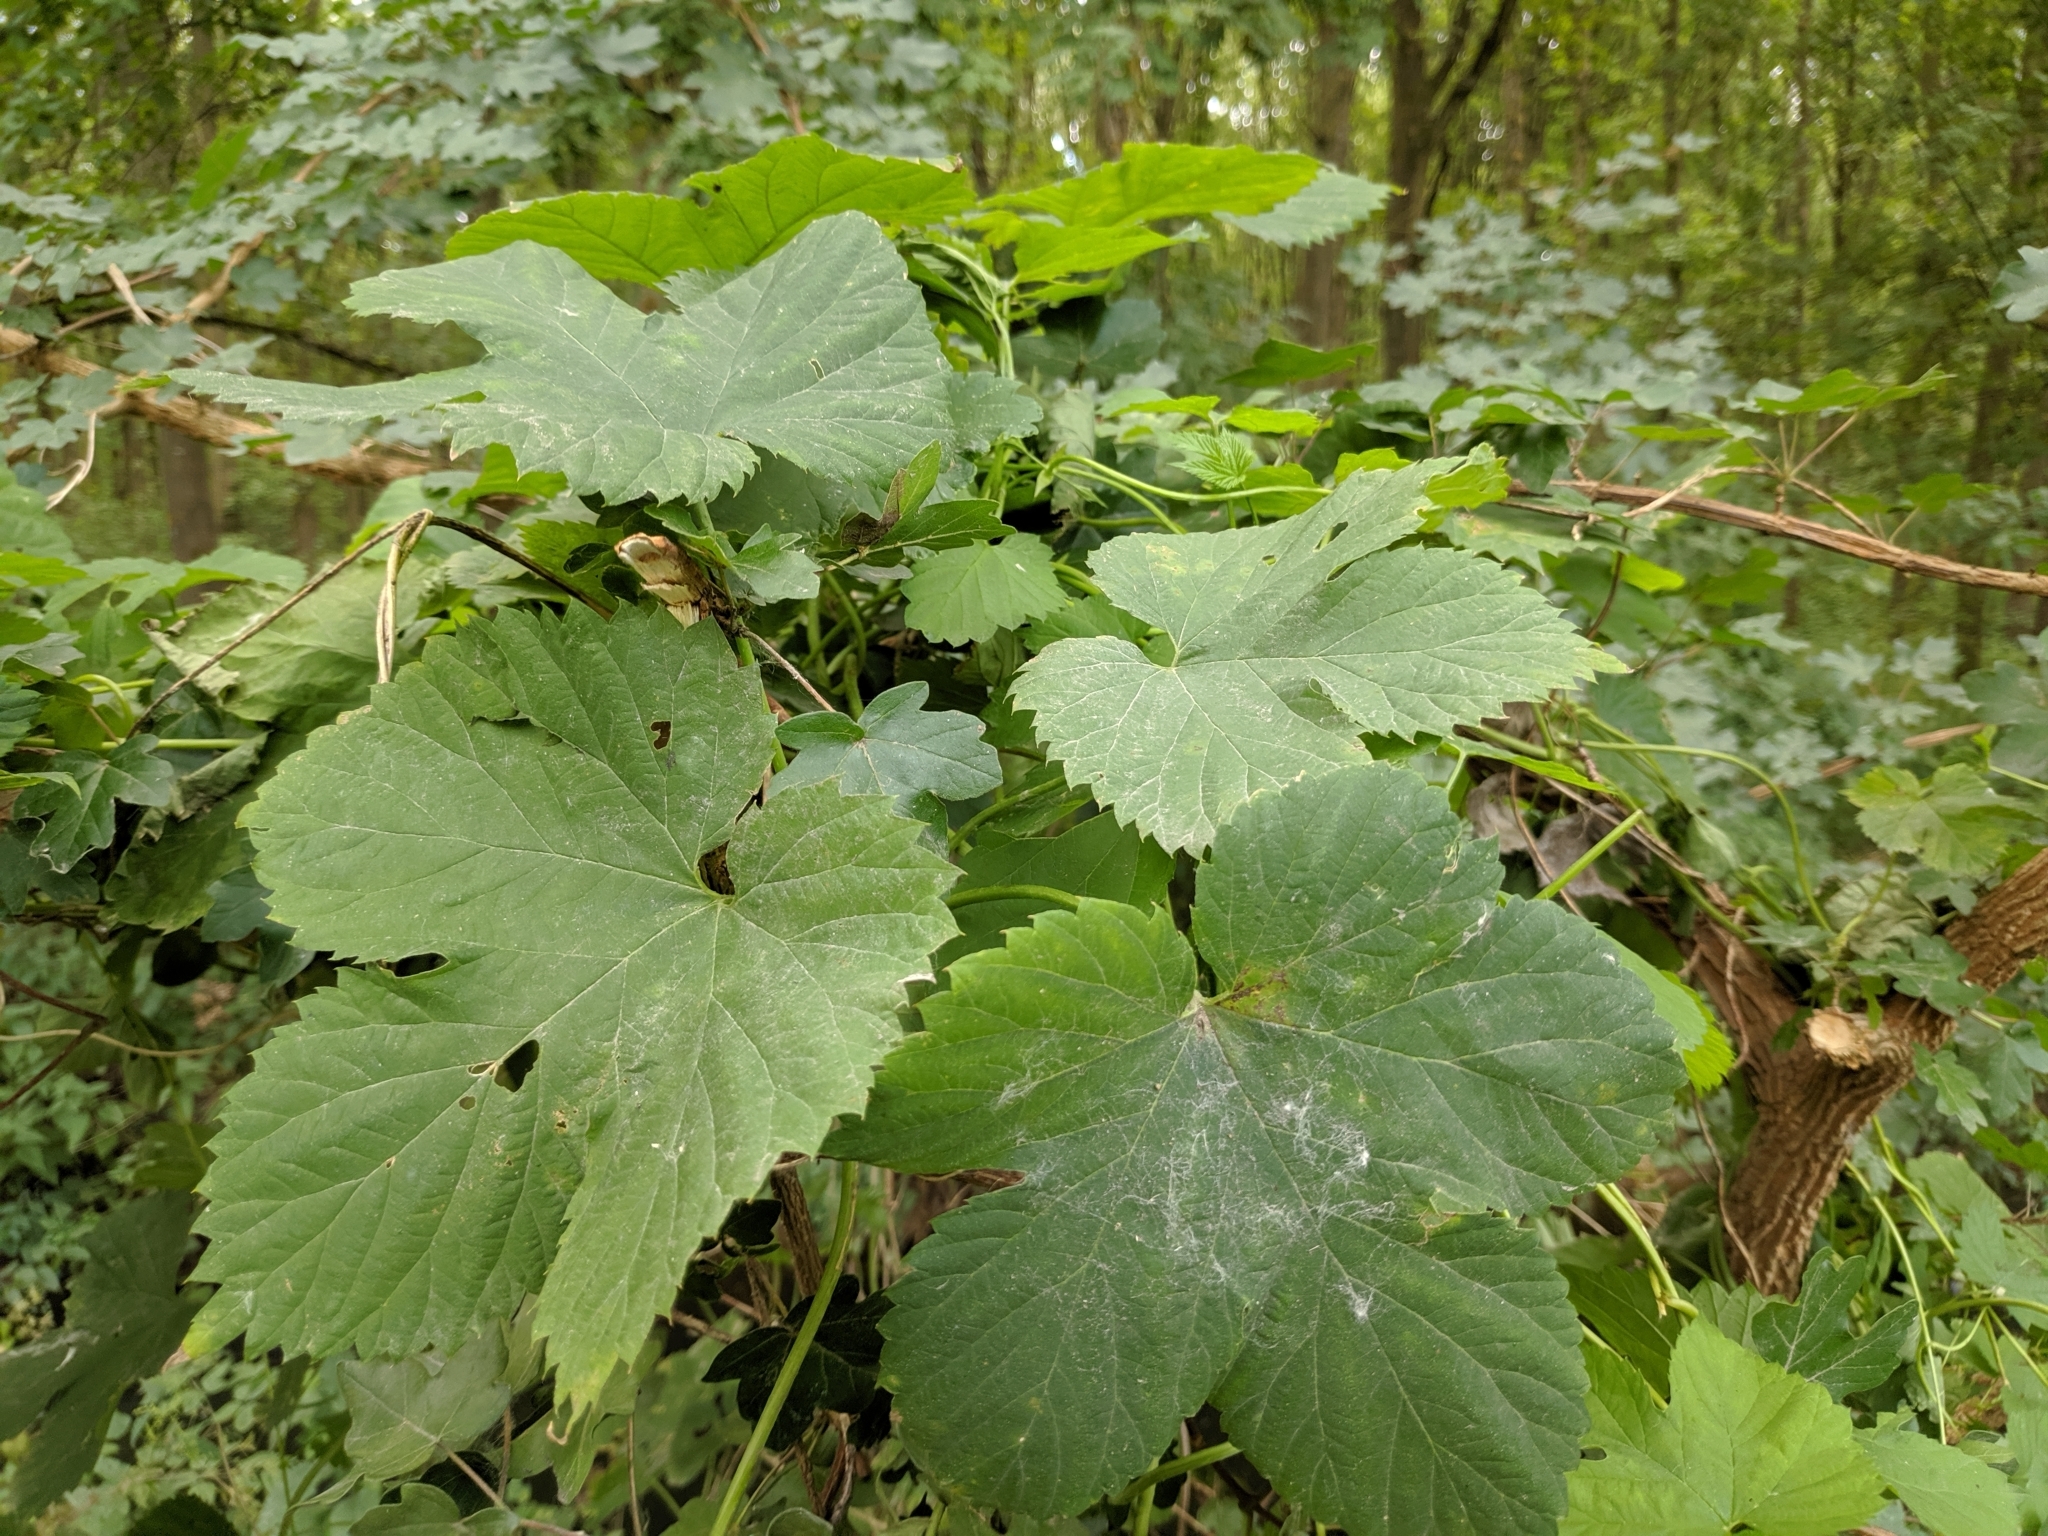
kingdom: Plantae
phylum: Tracheophyta
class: Magnoliopsida
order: Rosales
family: Cannabaceae
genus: Humulus
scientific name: Humulus lupulus
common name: Hop
